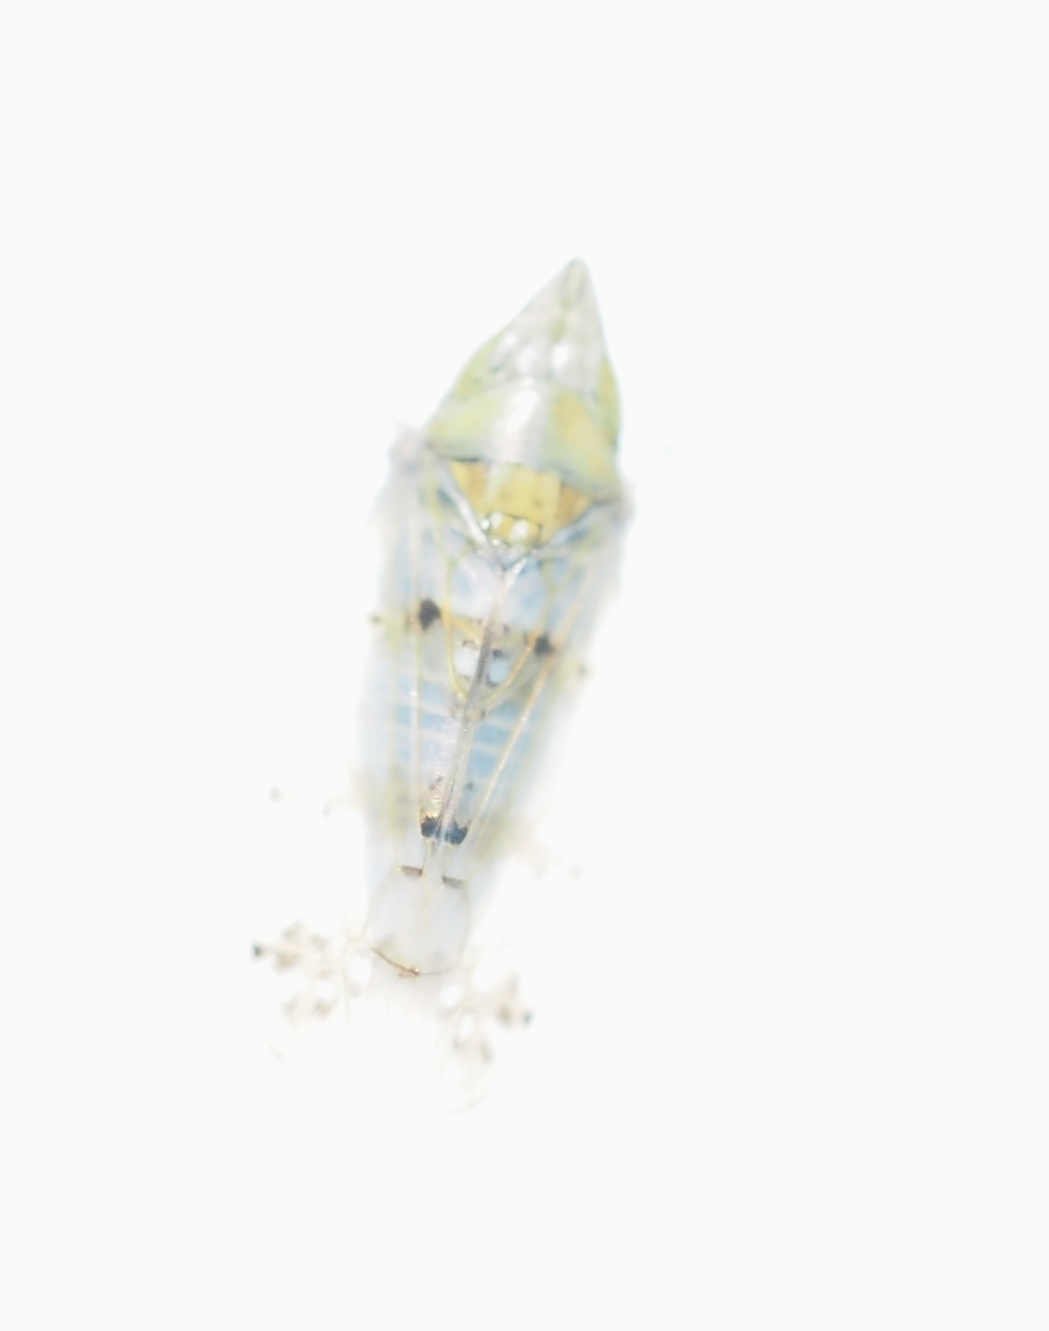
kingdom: Animalia
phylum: Arthropoda
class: Insecta
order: Hemiptera
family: Cicadellidae
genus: Japananus
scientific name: Japananus hyalinus
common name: The japanese maple leafhopper
